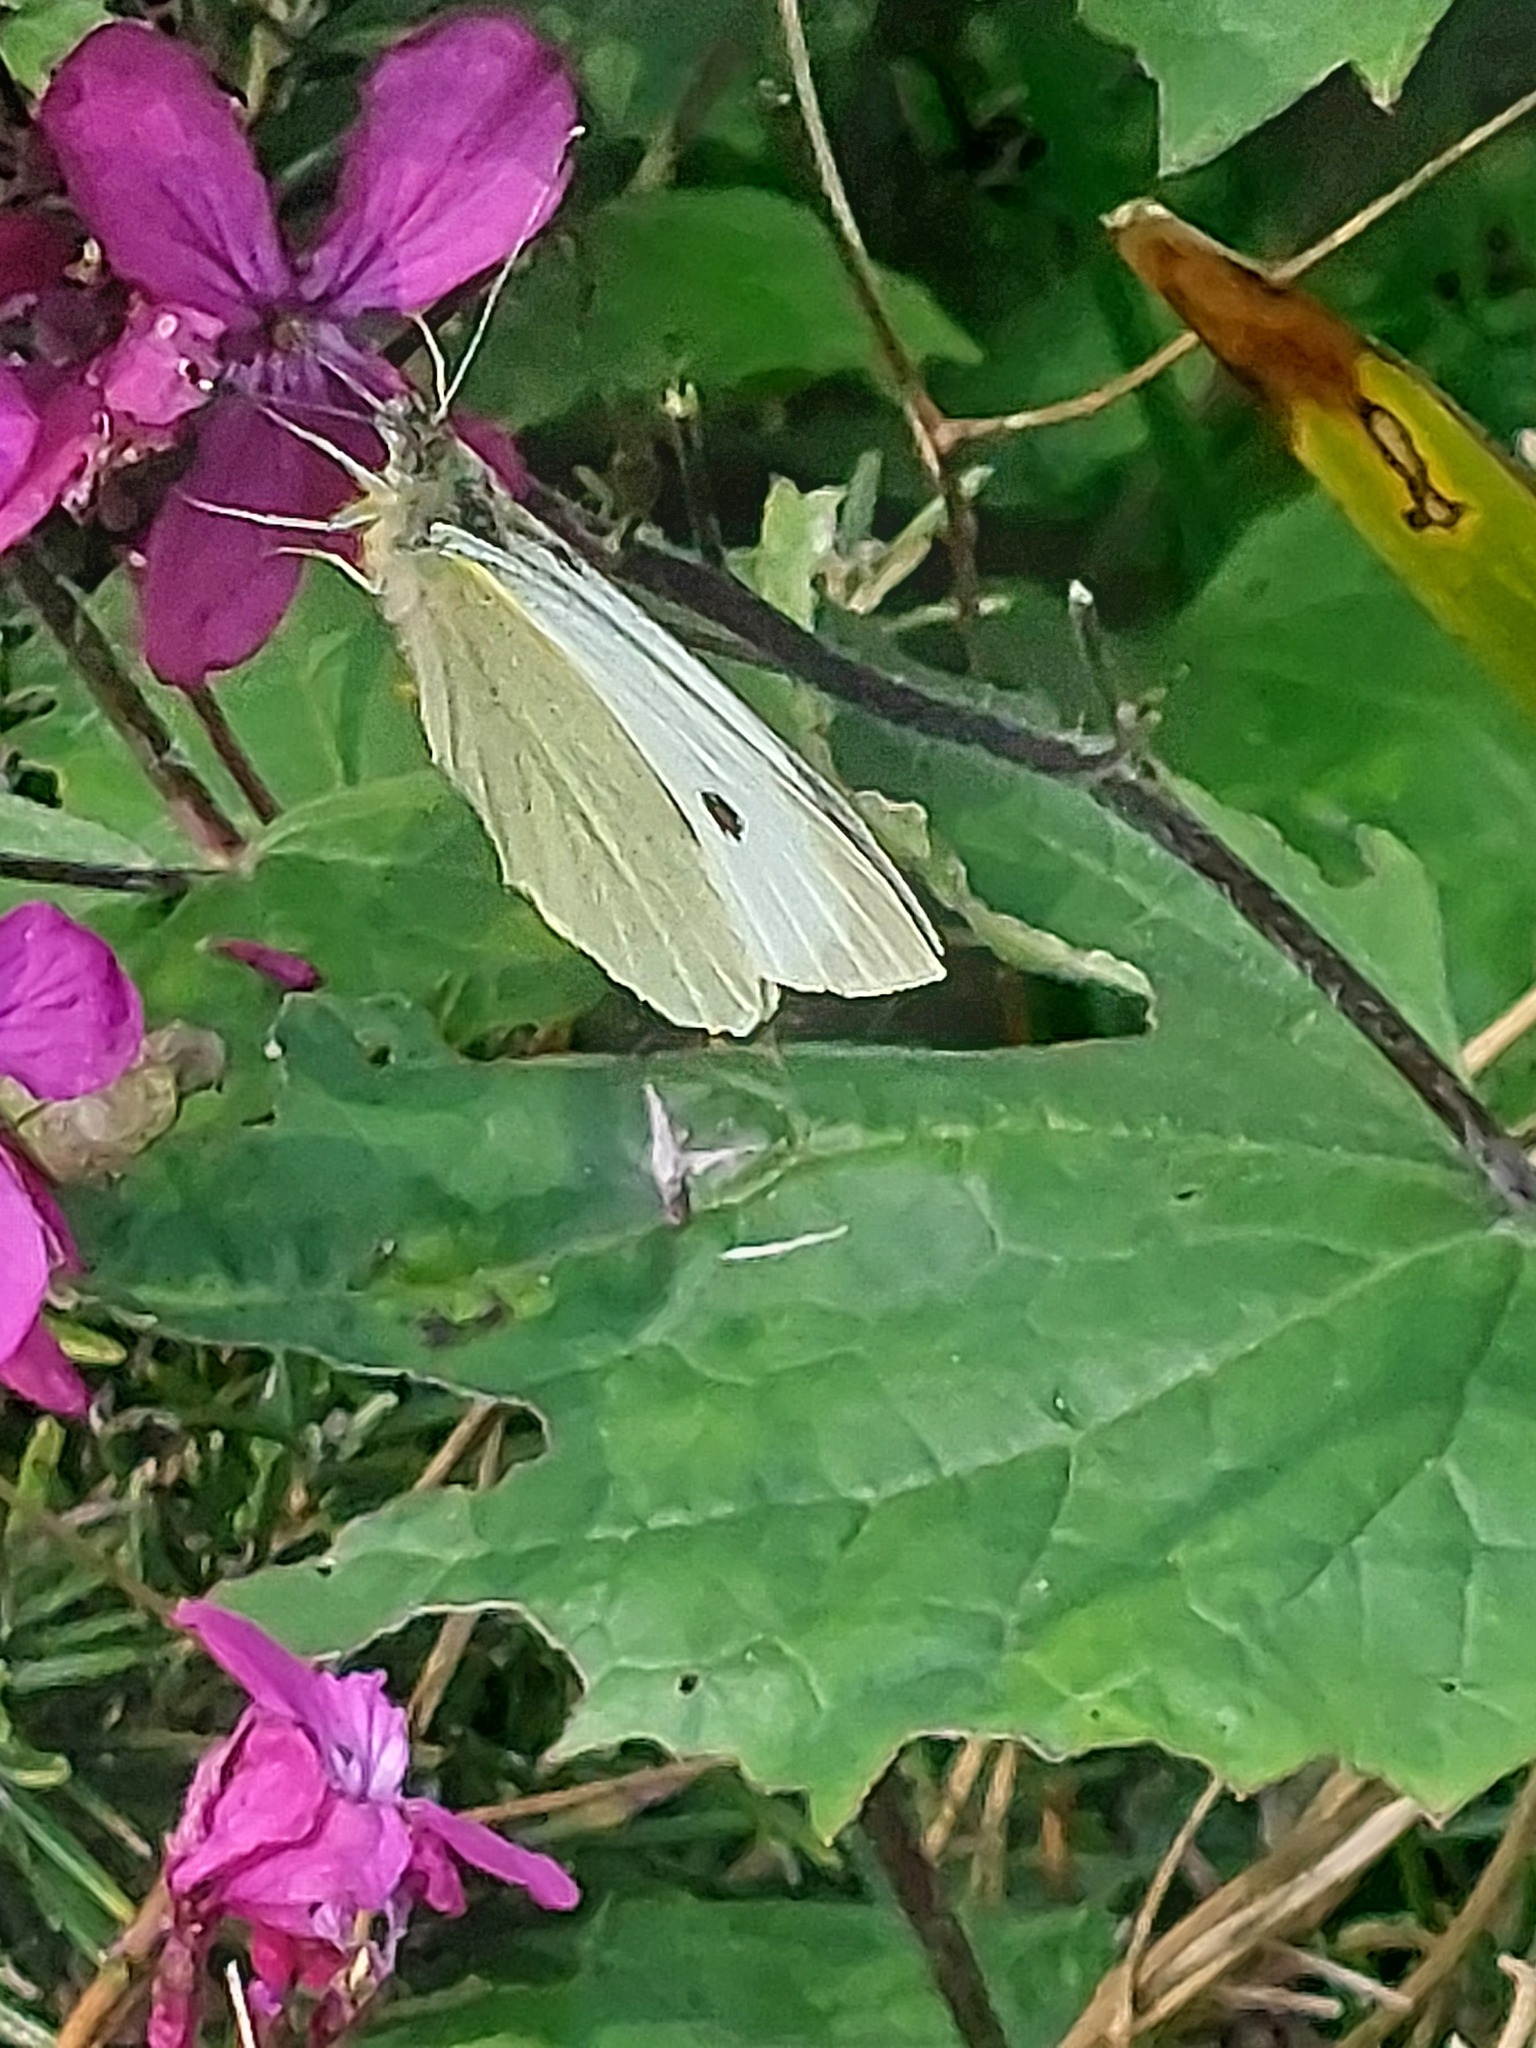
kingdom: Animalia
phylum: Arthropoda
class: Insecta
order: Lepidoptera
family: Pieridae
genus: Pieris
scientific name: Pieris brassicae
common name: Large white
